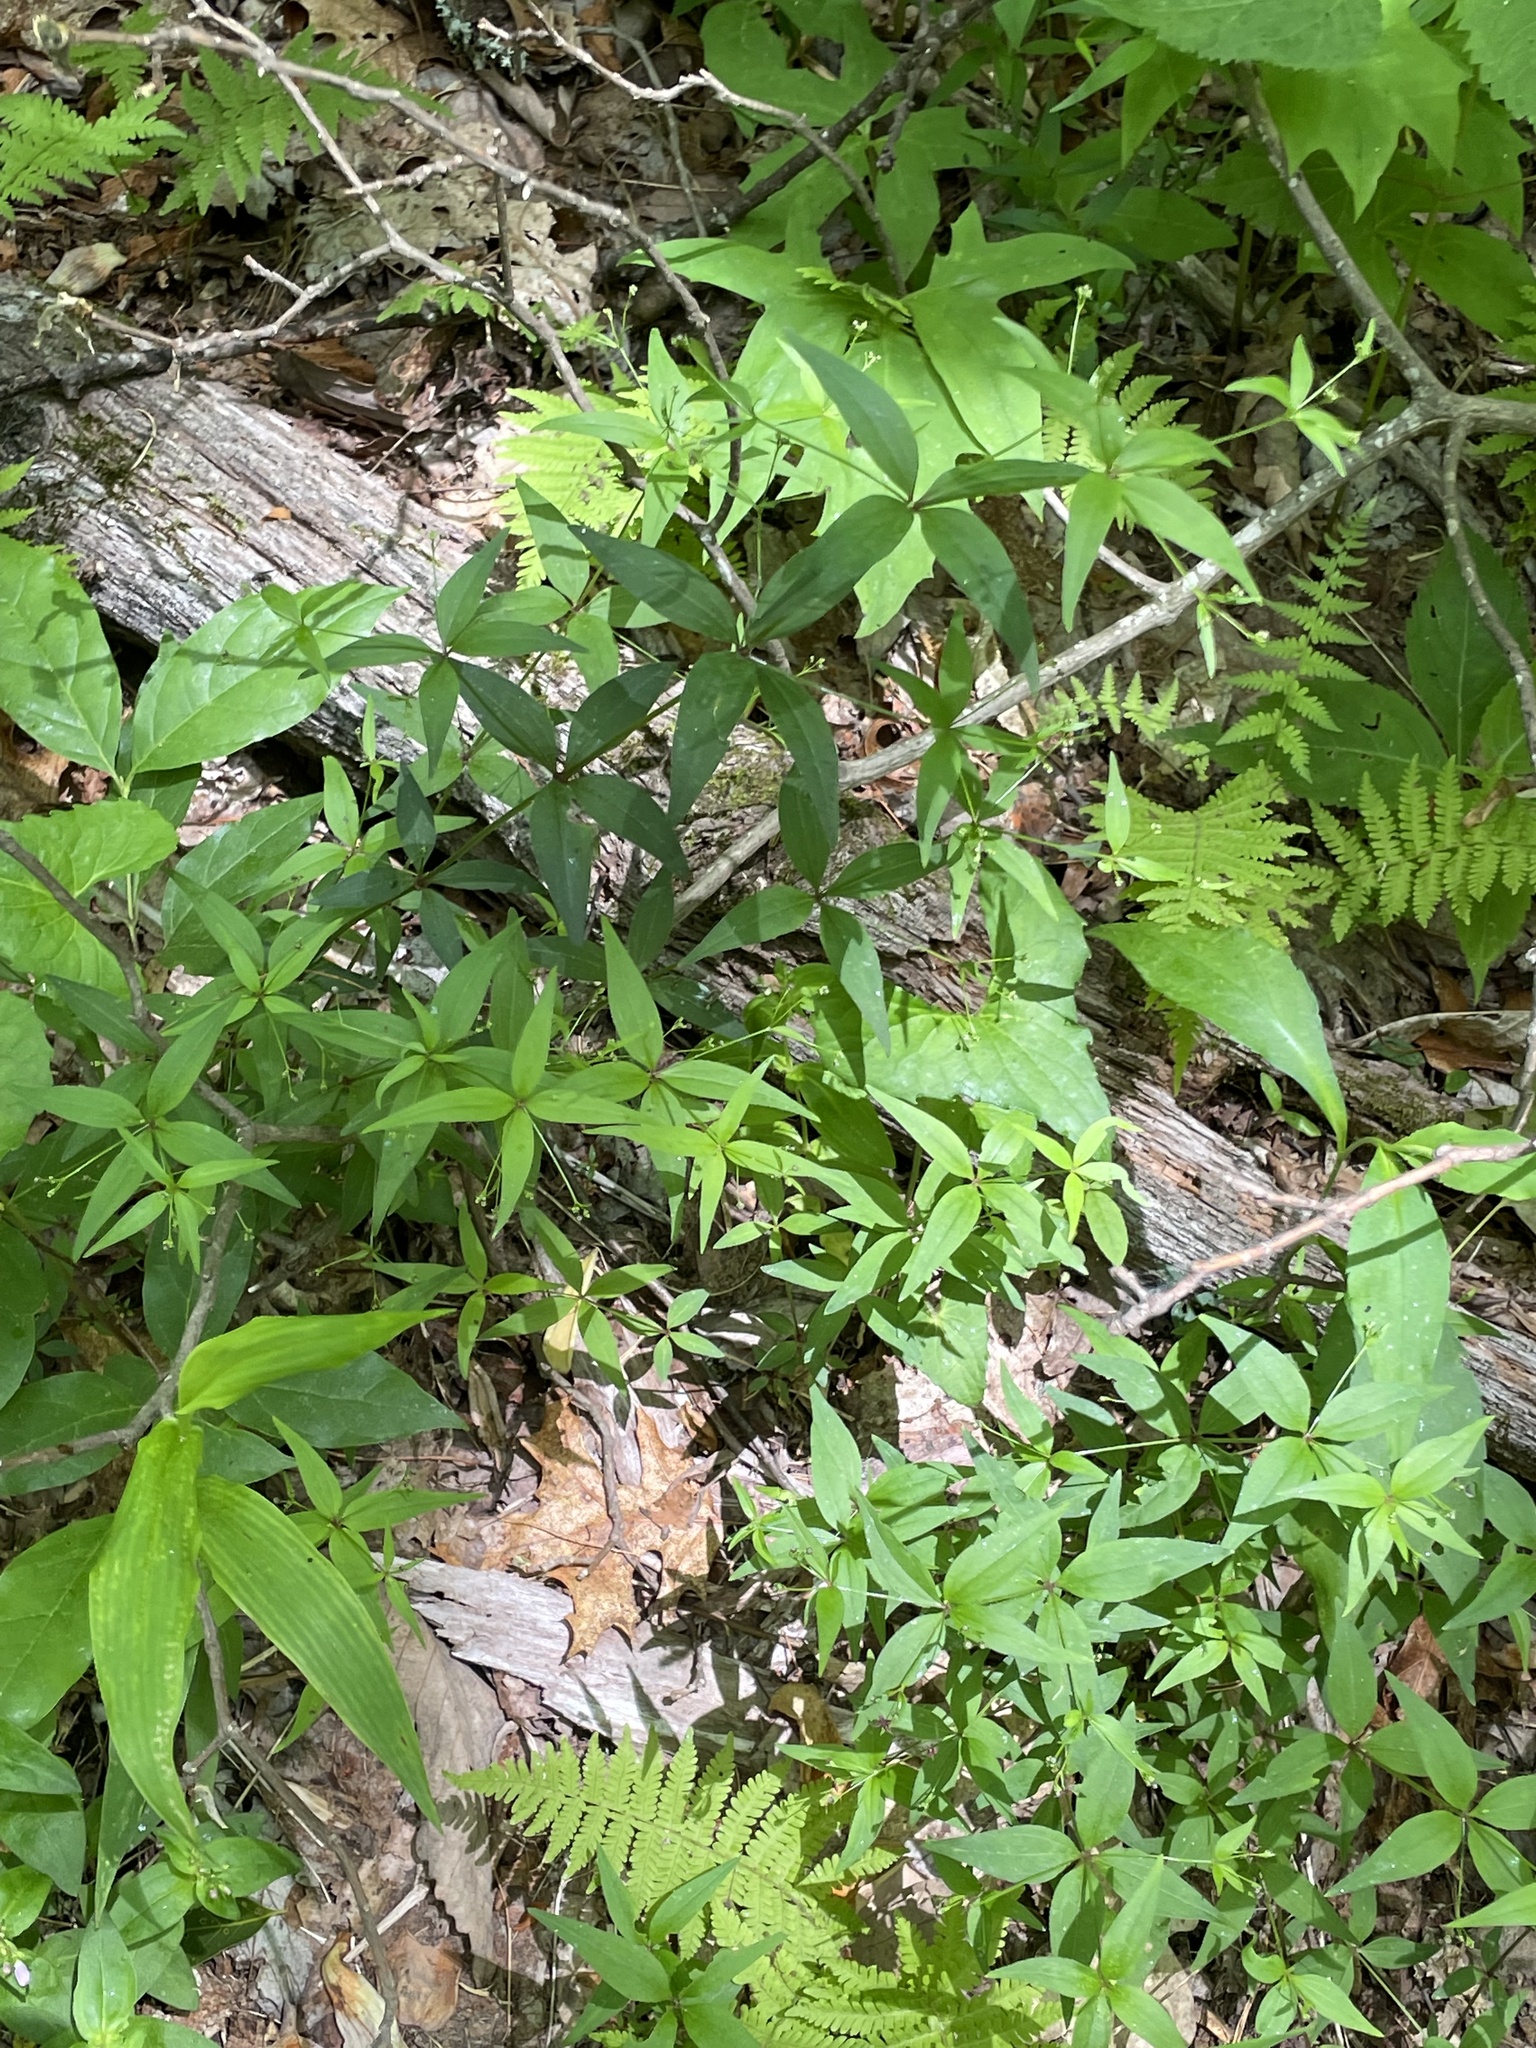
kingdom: Plantae
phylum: Tracheophyta
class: Magnoliopsida
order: Gentianales
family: Rubiaceae
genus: Galium
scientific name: Galium latifolium
